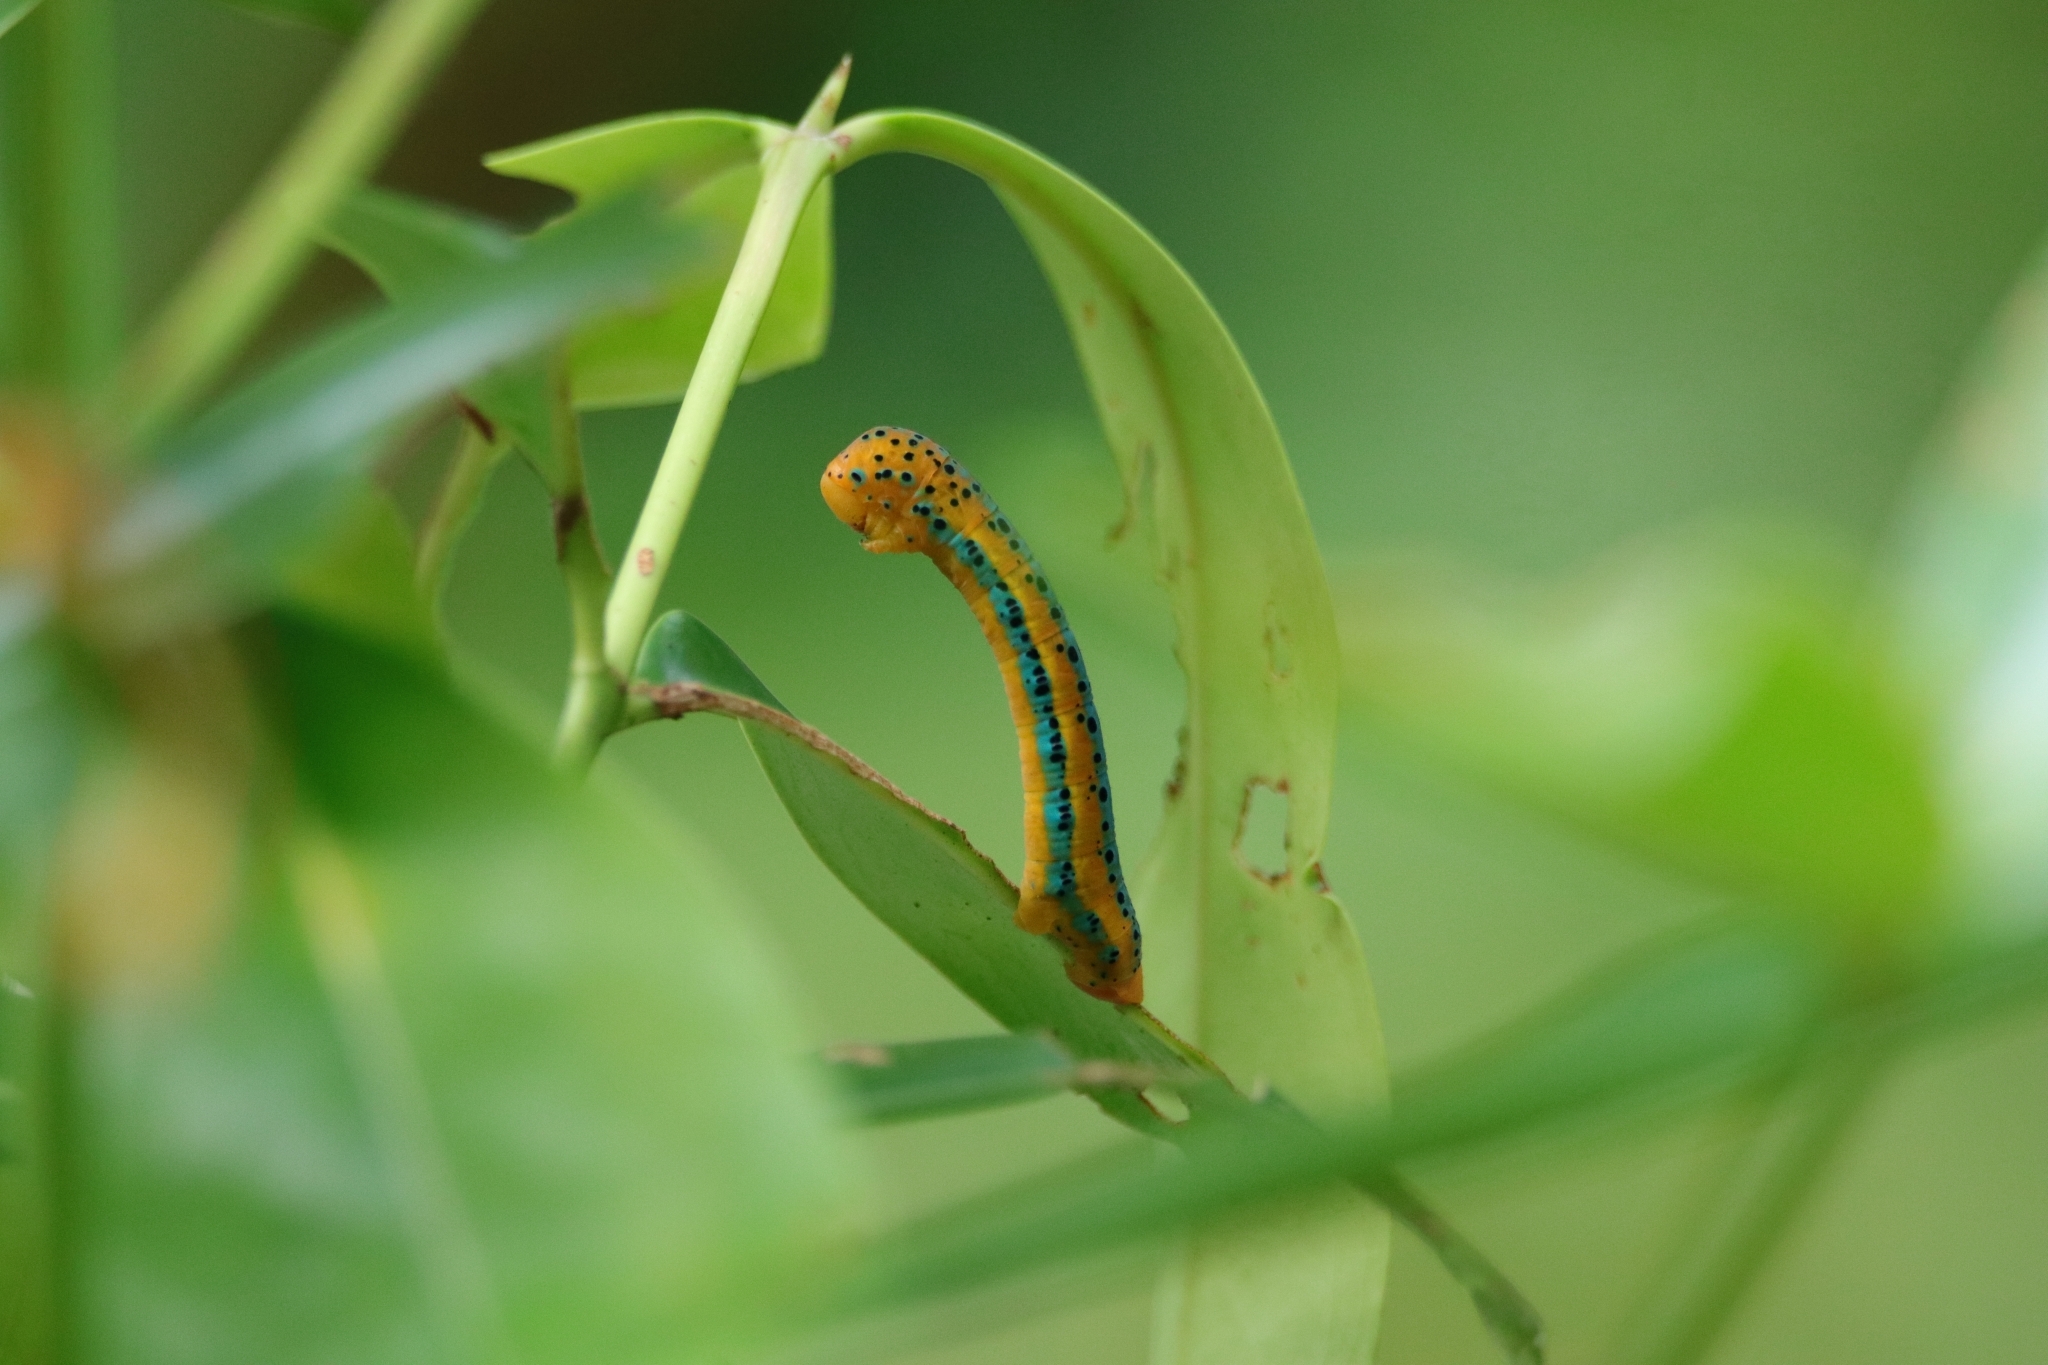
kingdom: Animalia
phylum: Arthropoda
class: Insecta
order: Lepidoptera
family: Geometridae
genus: Dysphania
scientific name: Dysphania percota
